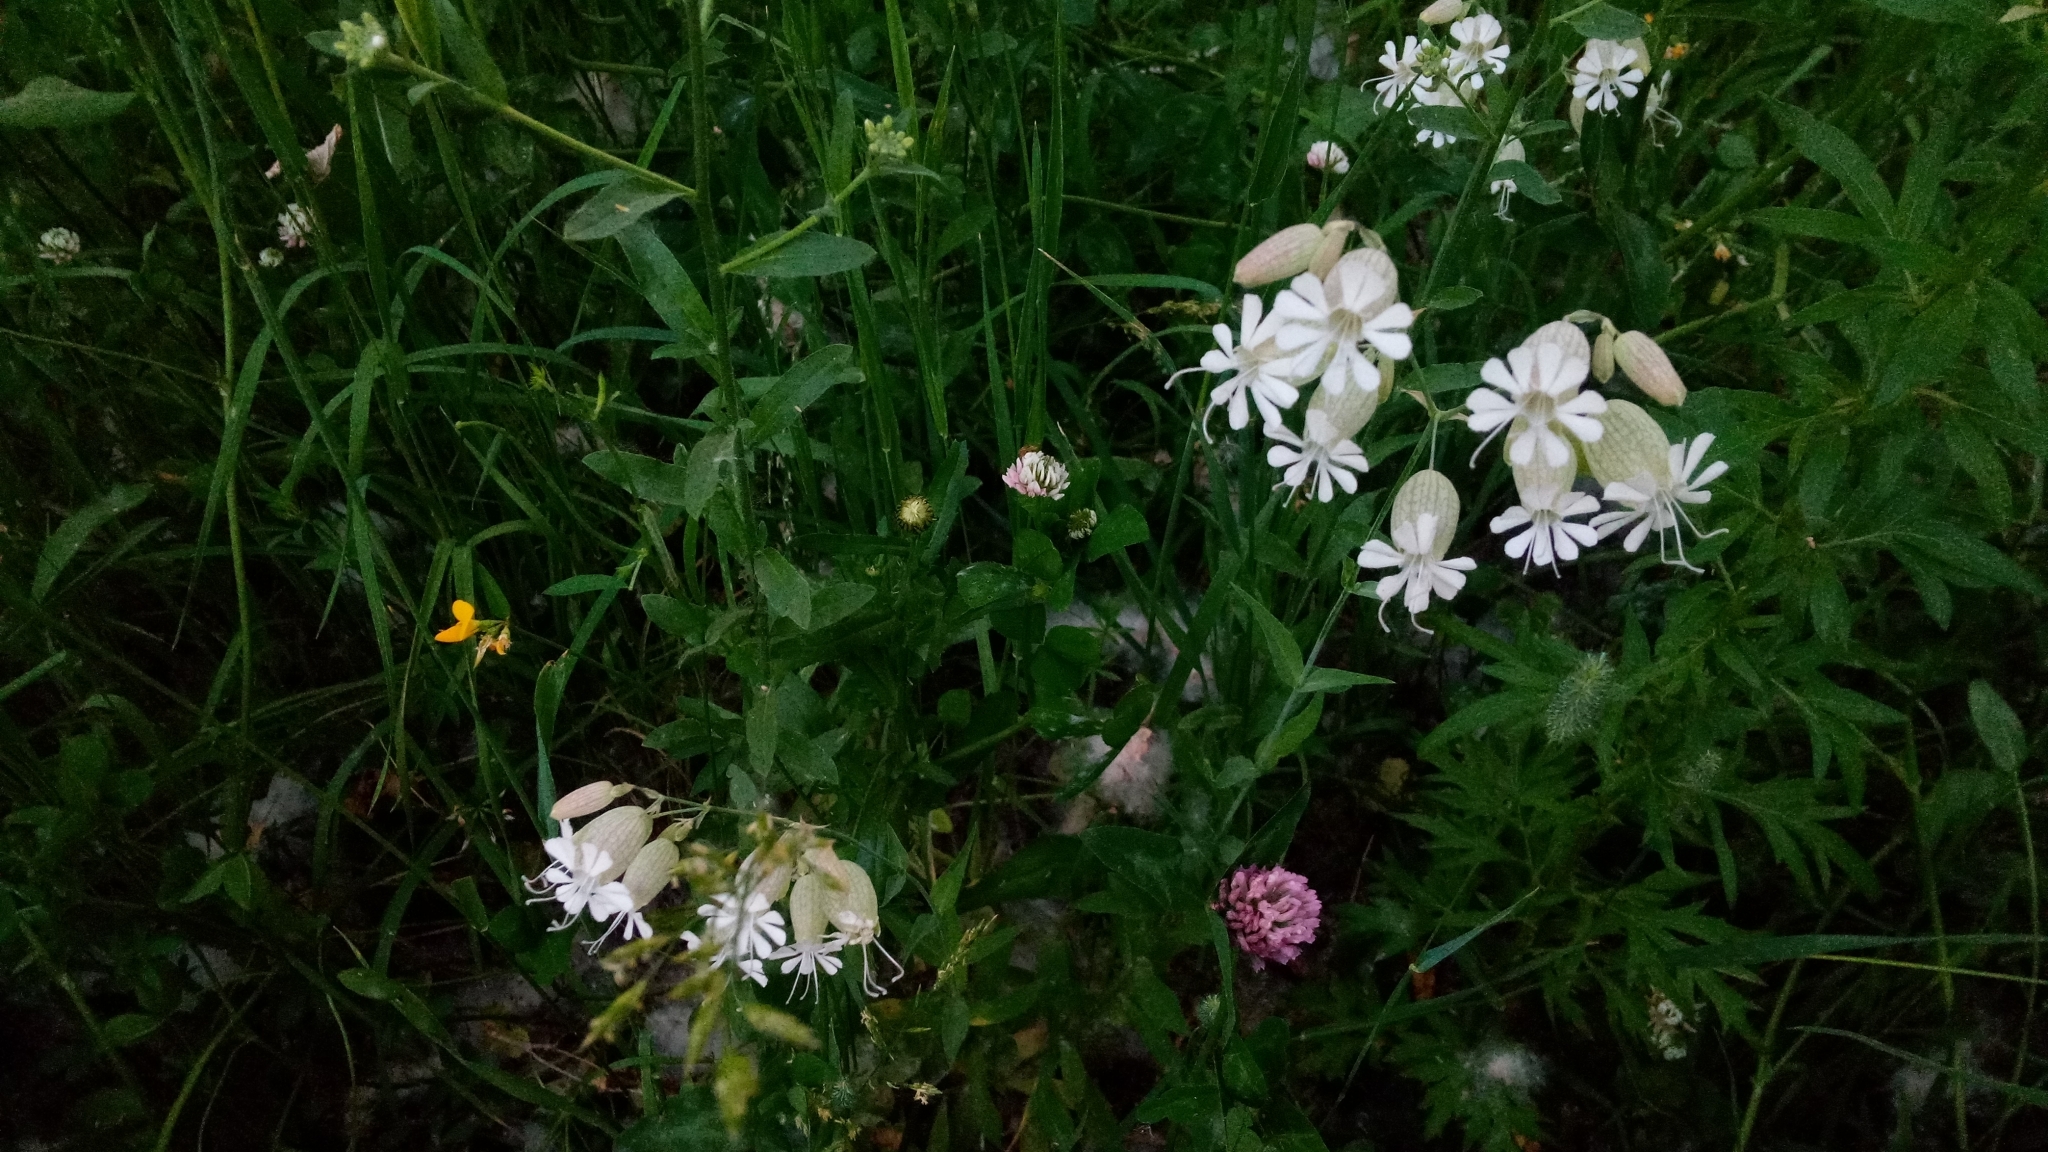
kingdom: Plantae
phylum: Tracheophyta
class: Magnoliopsida
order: Caryophyllales
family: Caryophyllaceae
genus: Silene
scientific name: Silene vulgaris
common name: Bladder campion
